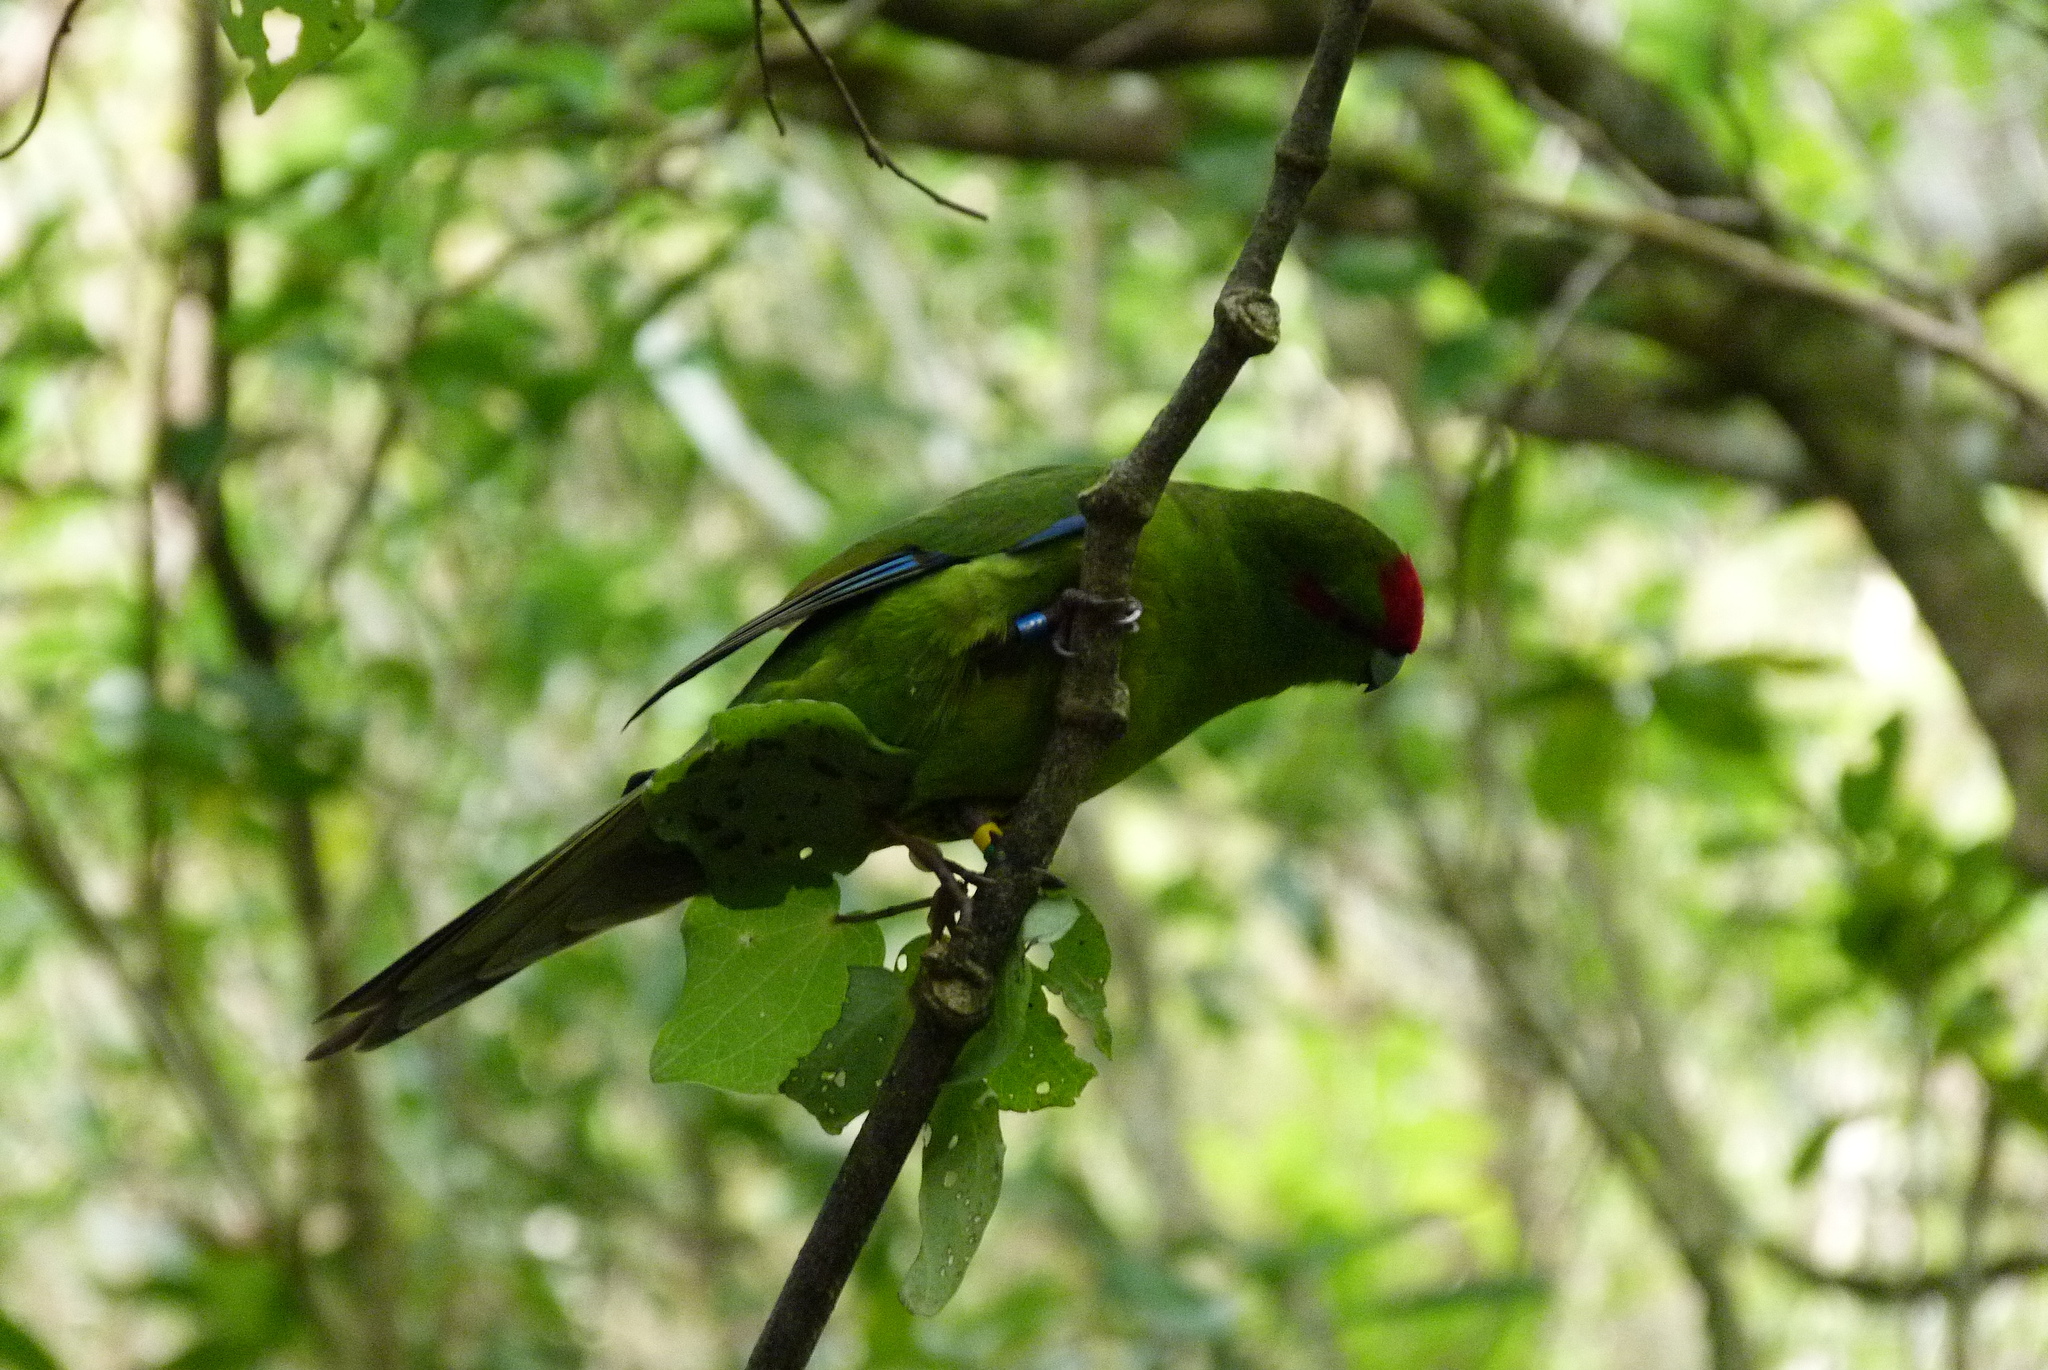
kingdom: Animalia
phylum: Chordata
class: Aves
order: Psittaciformes
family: Psittacidae
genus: Cyanoramphus
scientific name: Cyanoramphus novaezelandiae
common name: Red-fronted parakeet
